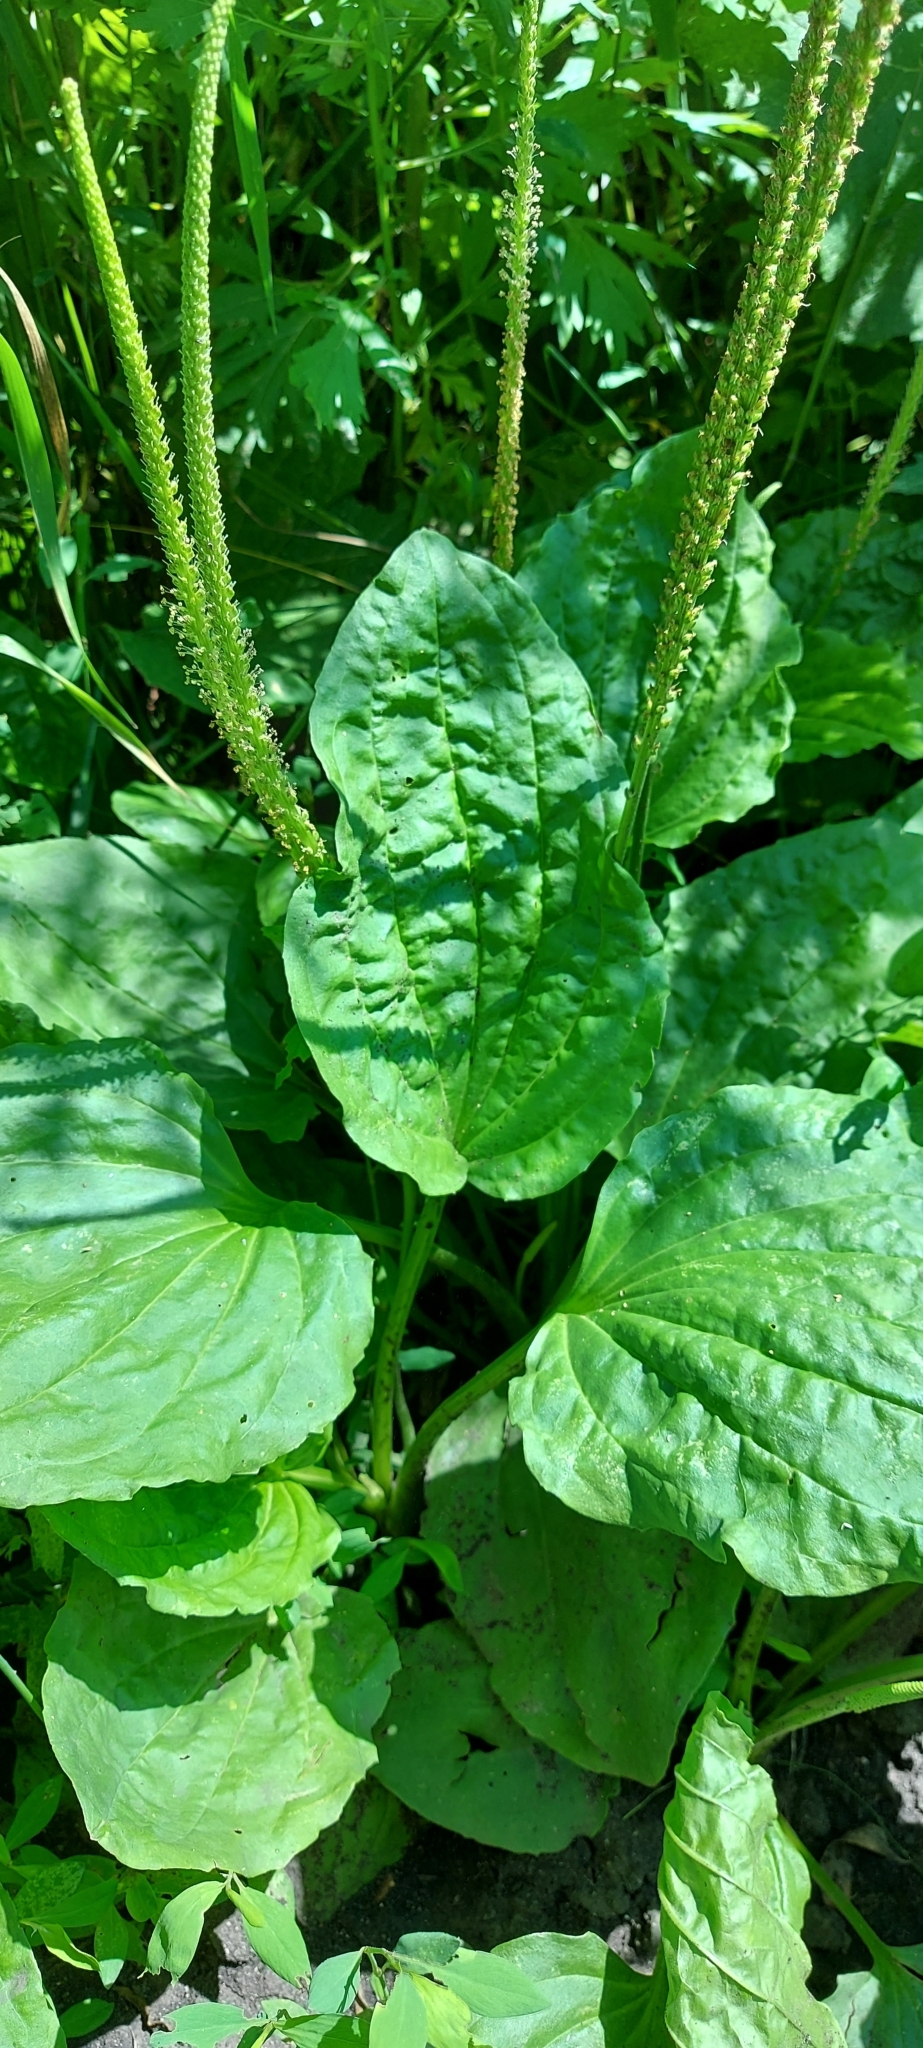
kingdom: Plantae
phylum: Tracheophyta
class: Magnoliopsida
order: Lamiales
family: Plantaginaceae
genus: Plantago
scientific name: Plantago major
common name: Common plantain
